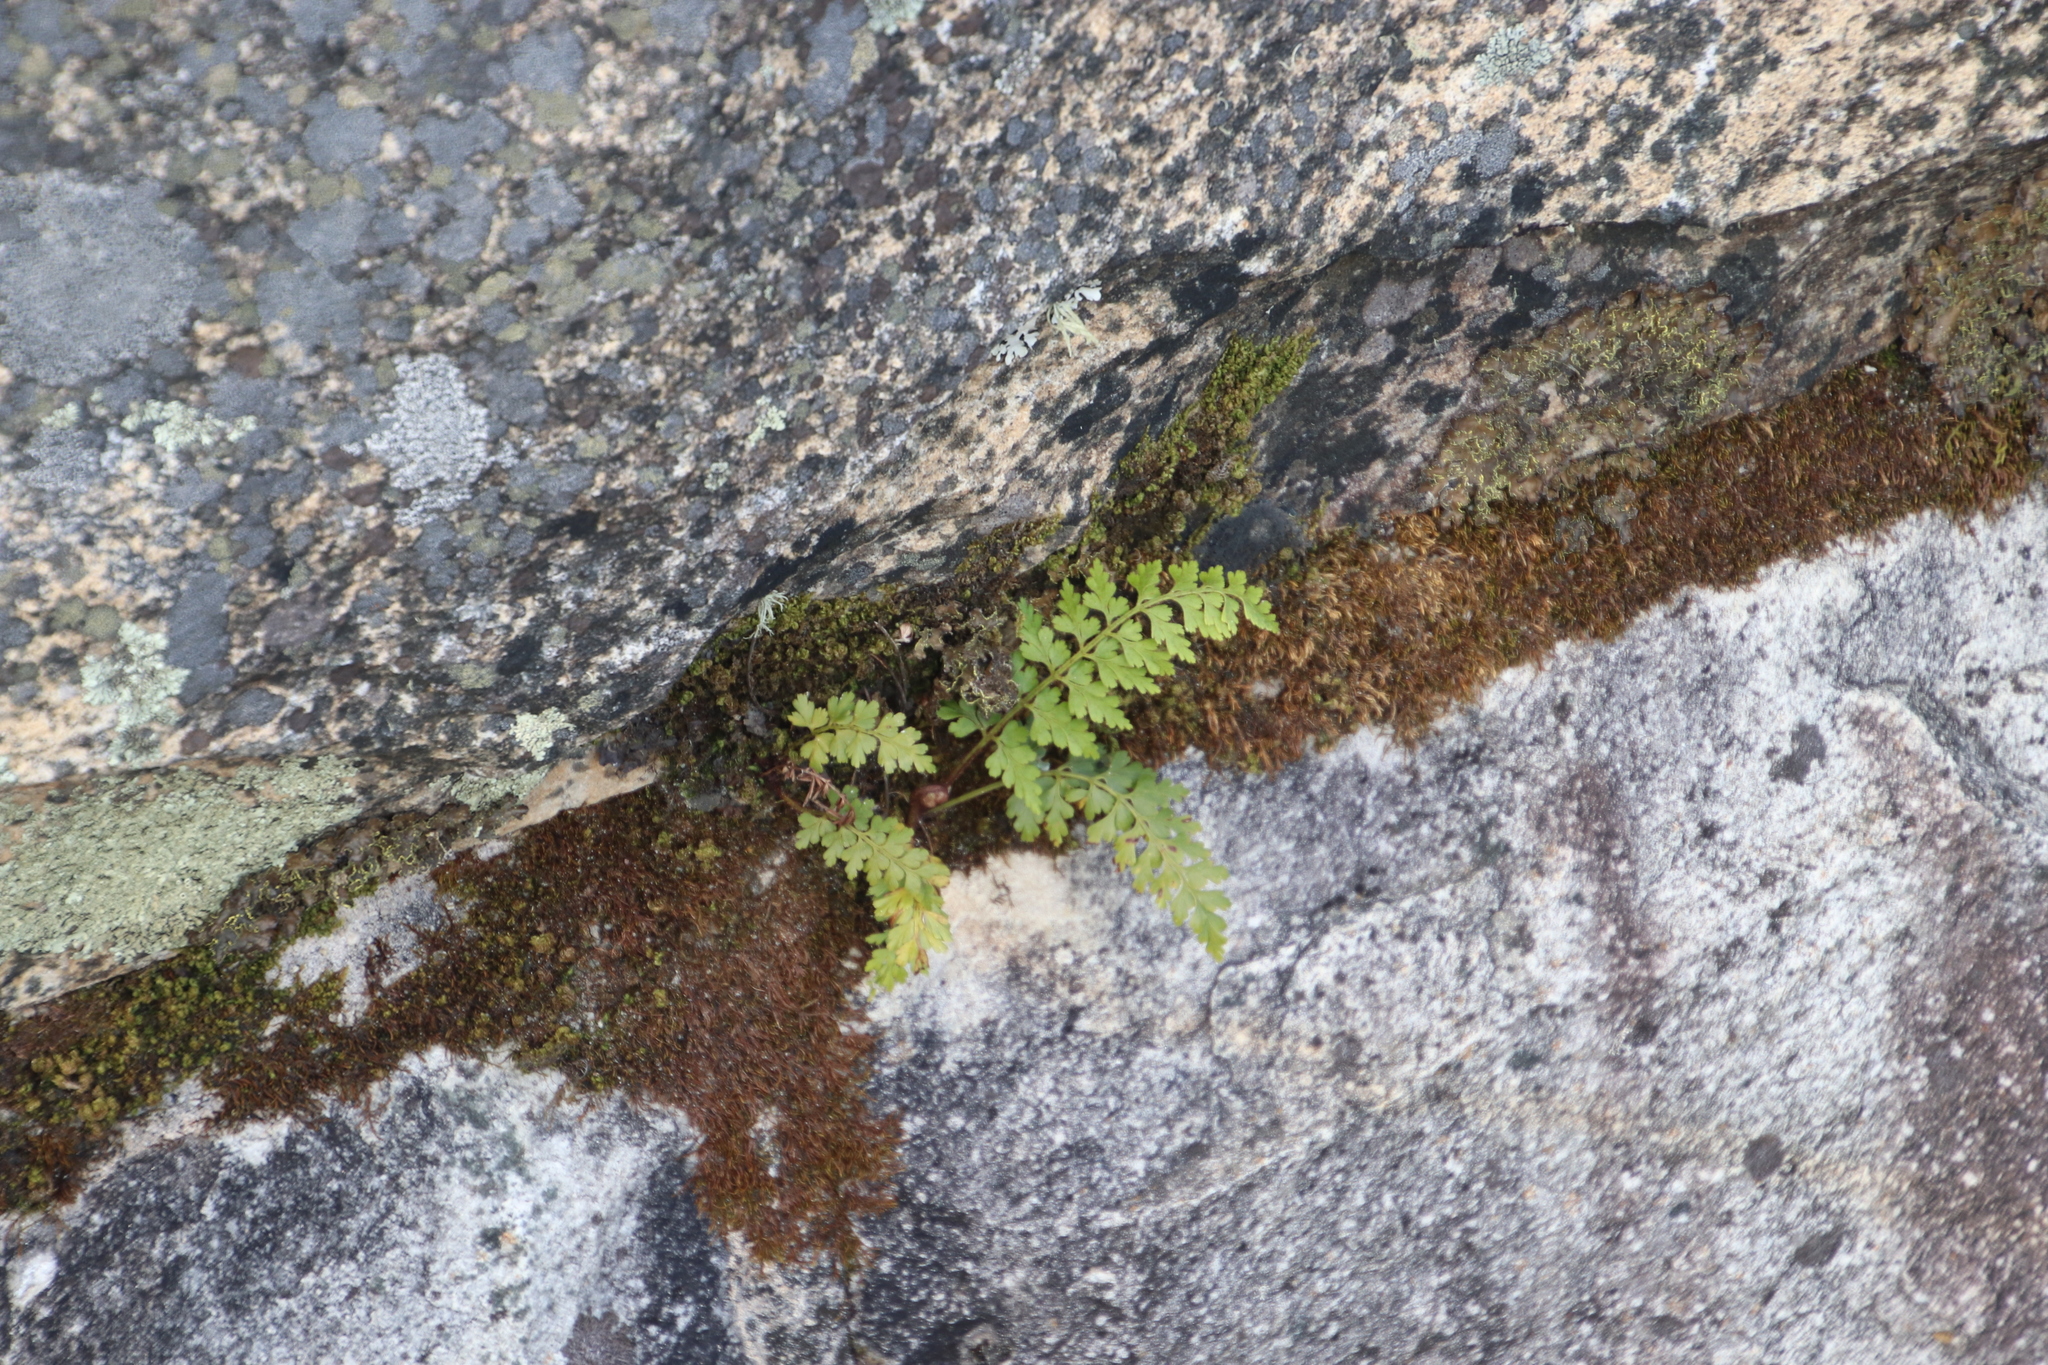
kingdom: Plantae
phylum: Tracheophyta
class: Polypodiopsida
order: Polypodiales
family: Aspleniaceae
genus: Asplenium
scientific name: Asplenium aethiopicum
